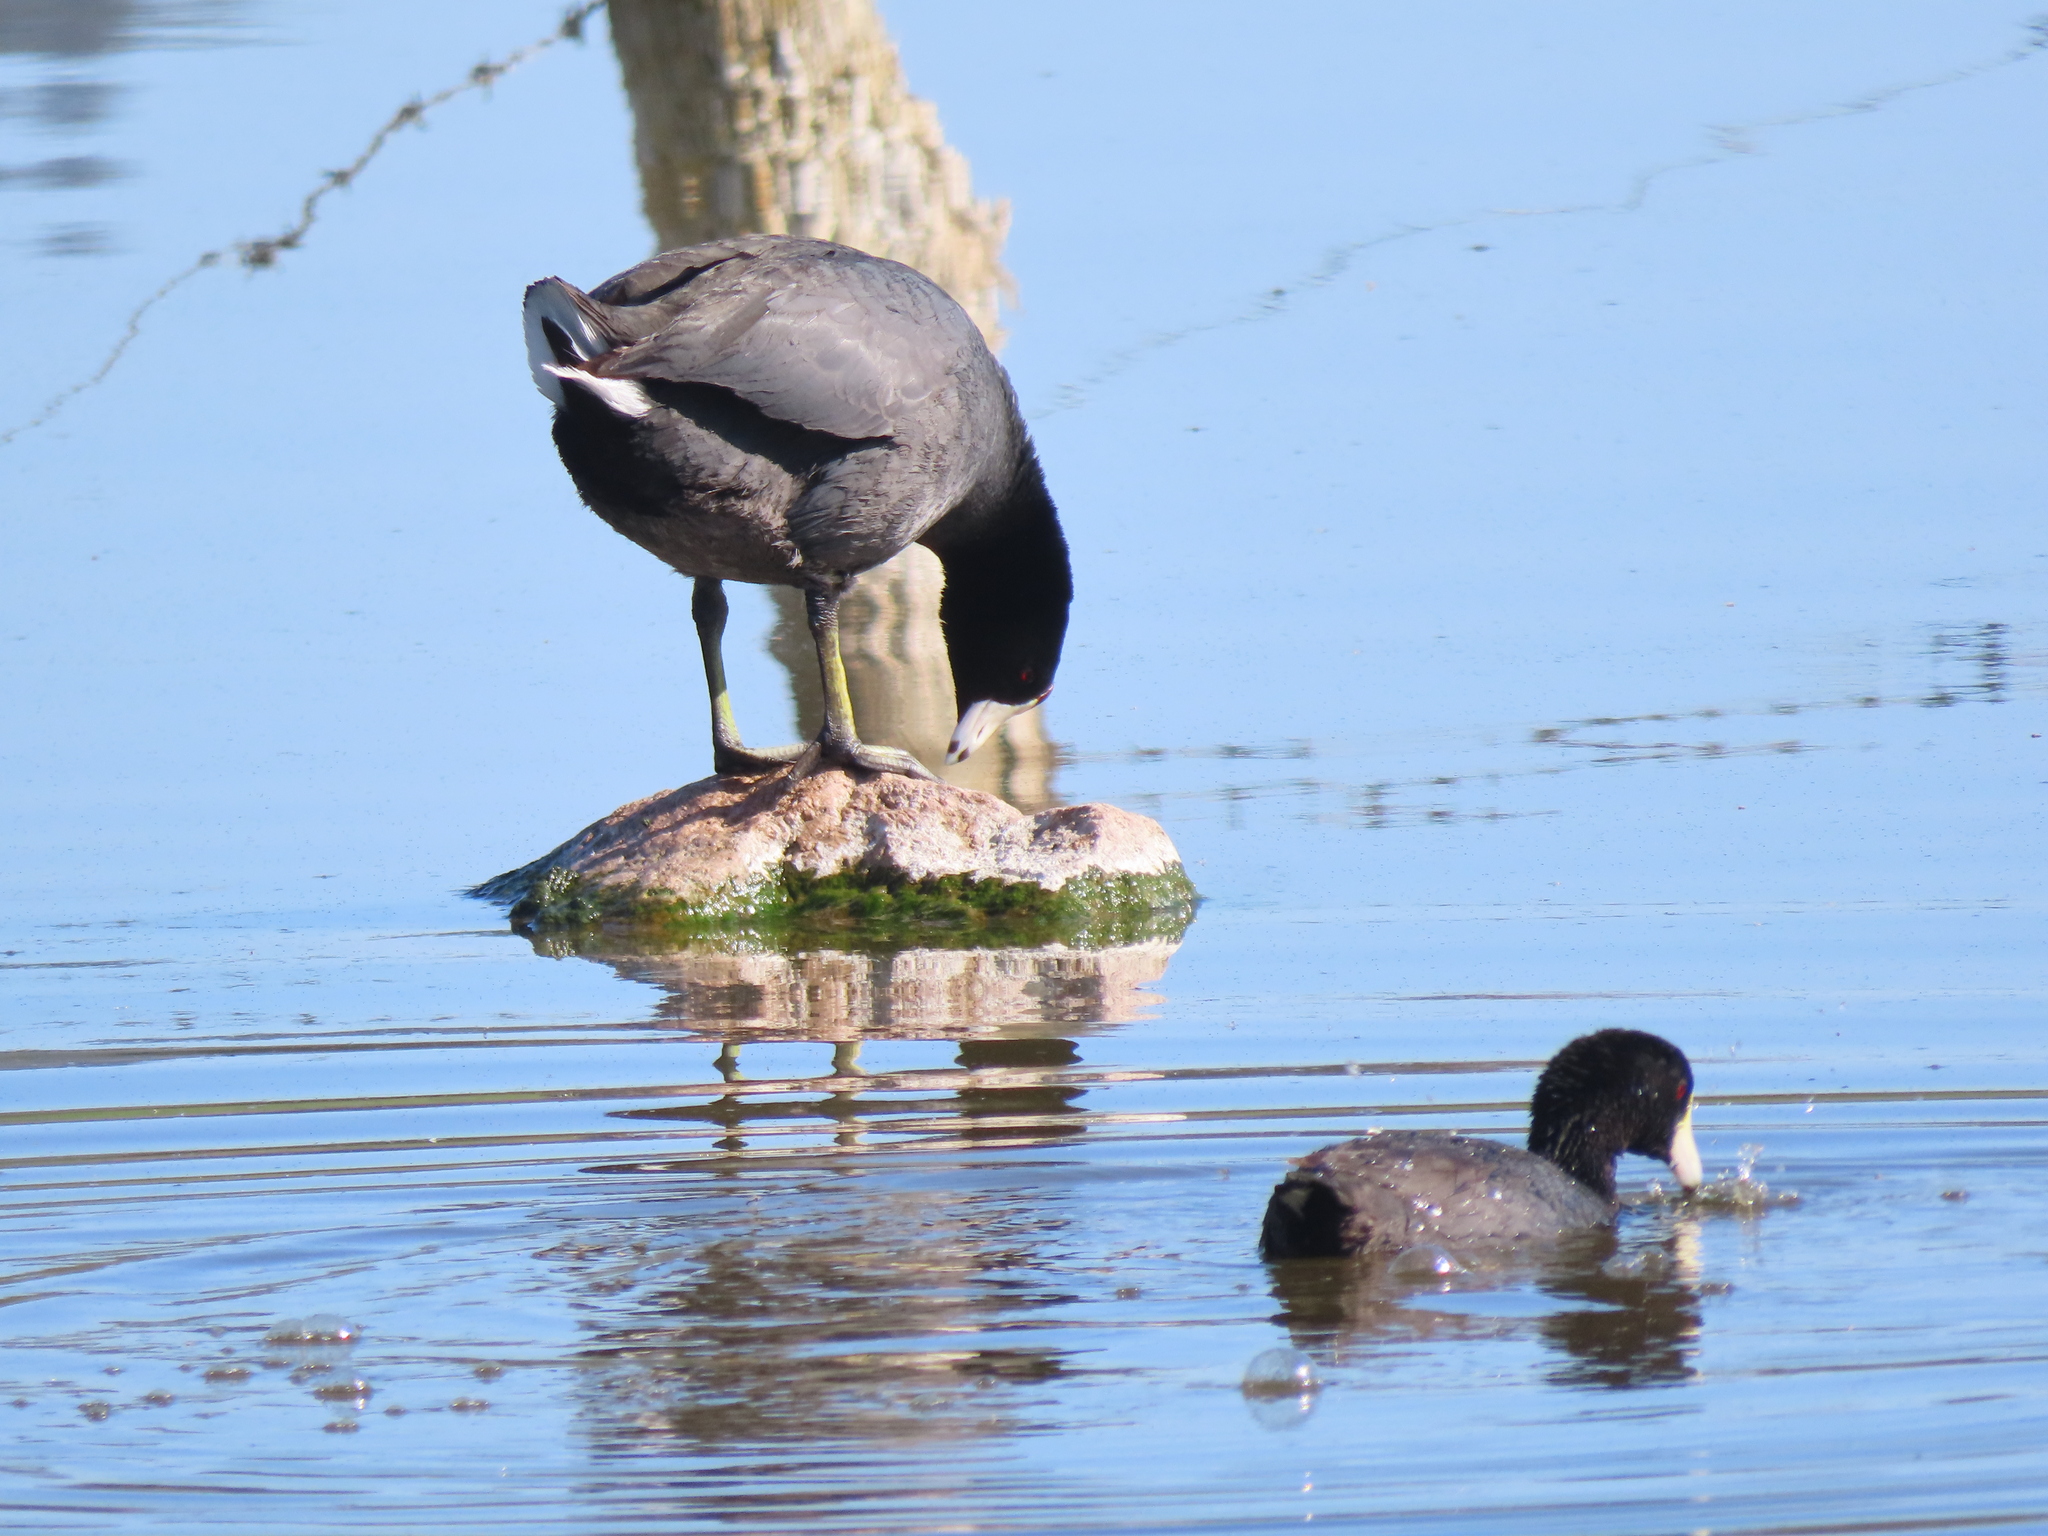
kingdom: Animalia
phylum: Chordata
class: Aves
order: Gruiformes
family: Rallidae
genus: Fulica
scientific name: Fulica americana
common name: American coot
